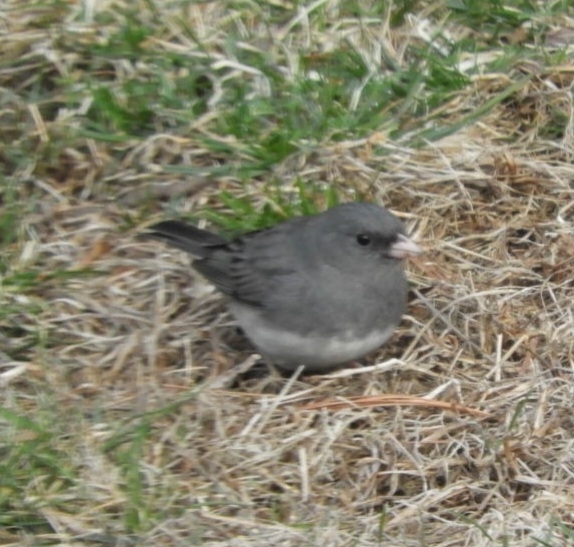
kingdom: Animalia
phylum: Chordata
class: Aves
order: Passeriformes
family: Passerellidae
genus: Junco
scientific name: Junco hyemalis
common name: Dark-eyed junco
